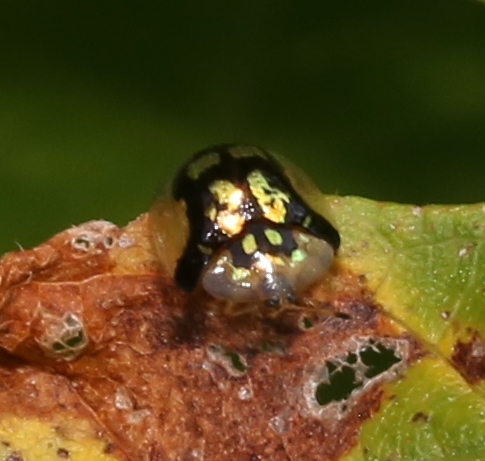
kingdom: Animalia
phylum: Arthropoda
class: Insecta
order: Coleoptera
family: Chrysomelidae
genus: Deloyala
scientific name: Deloyala guttata
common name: Mottled tortoise beetle
